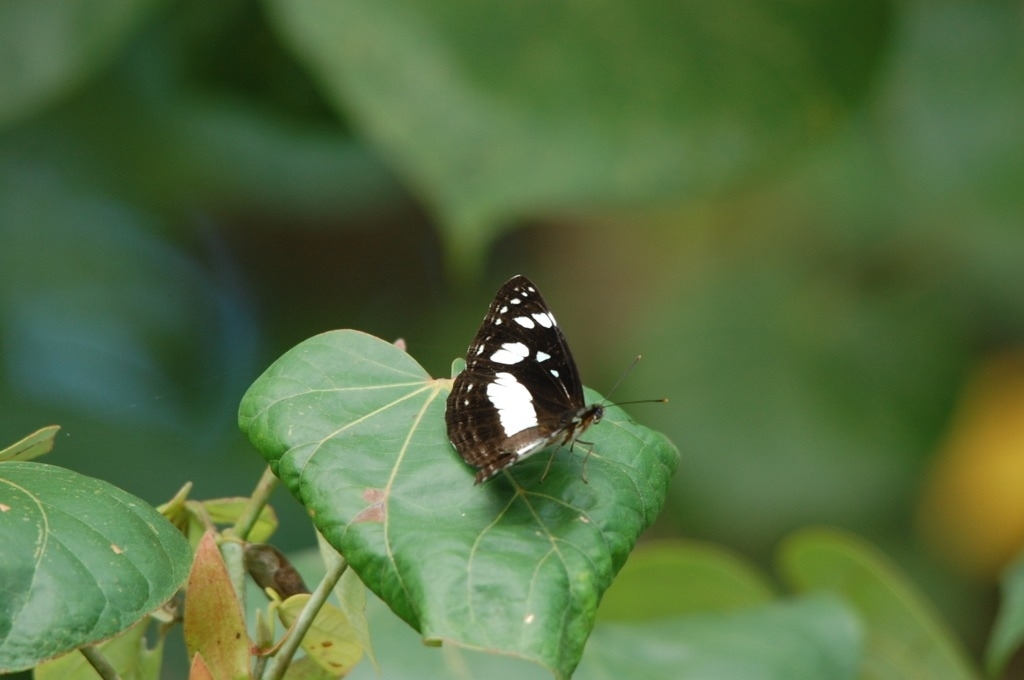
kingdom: Animalia
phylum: Arthropoda
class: Insecta
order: Lepidoptera
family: Nymphalidae
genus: Phaedyma
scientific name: Phaedyma shepherdi
